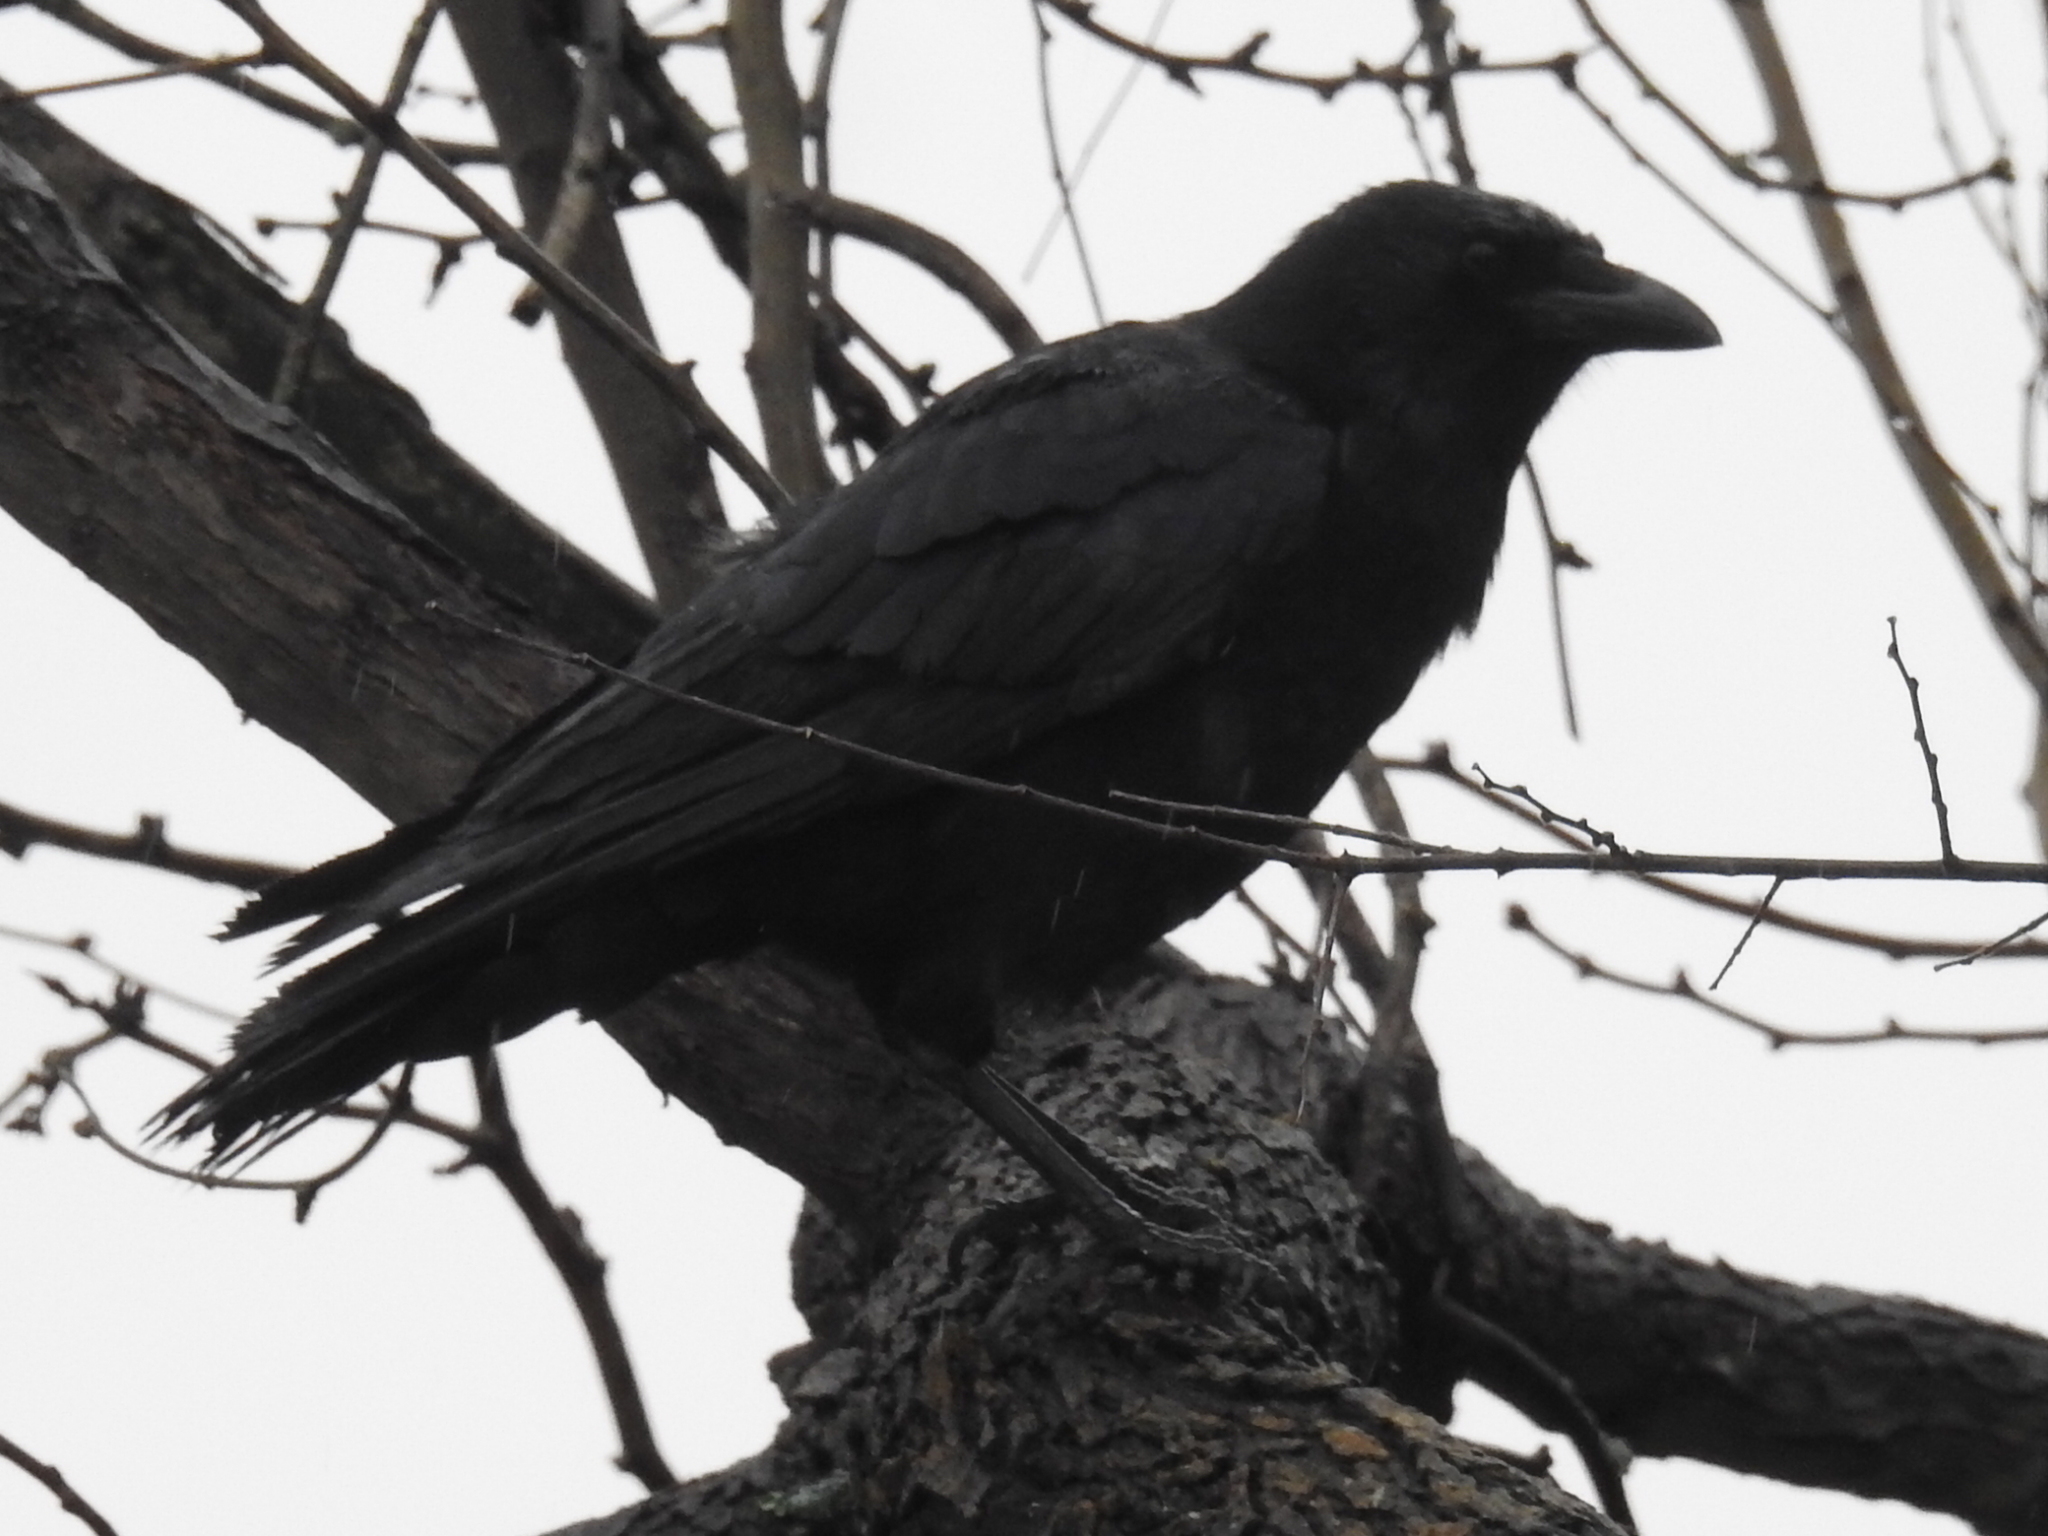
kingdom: Animalia
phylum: Chordata
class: Aves
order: Passeriformes
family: Corvidae
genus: Corvus
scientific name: Corvus brachyrhynchos
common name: American crow
